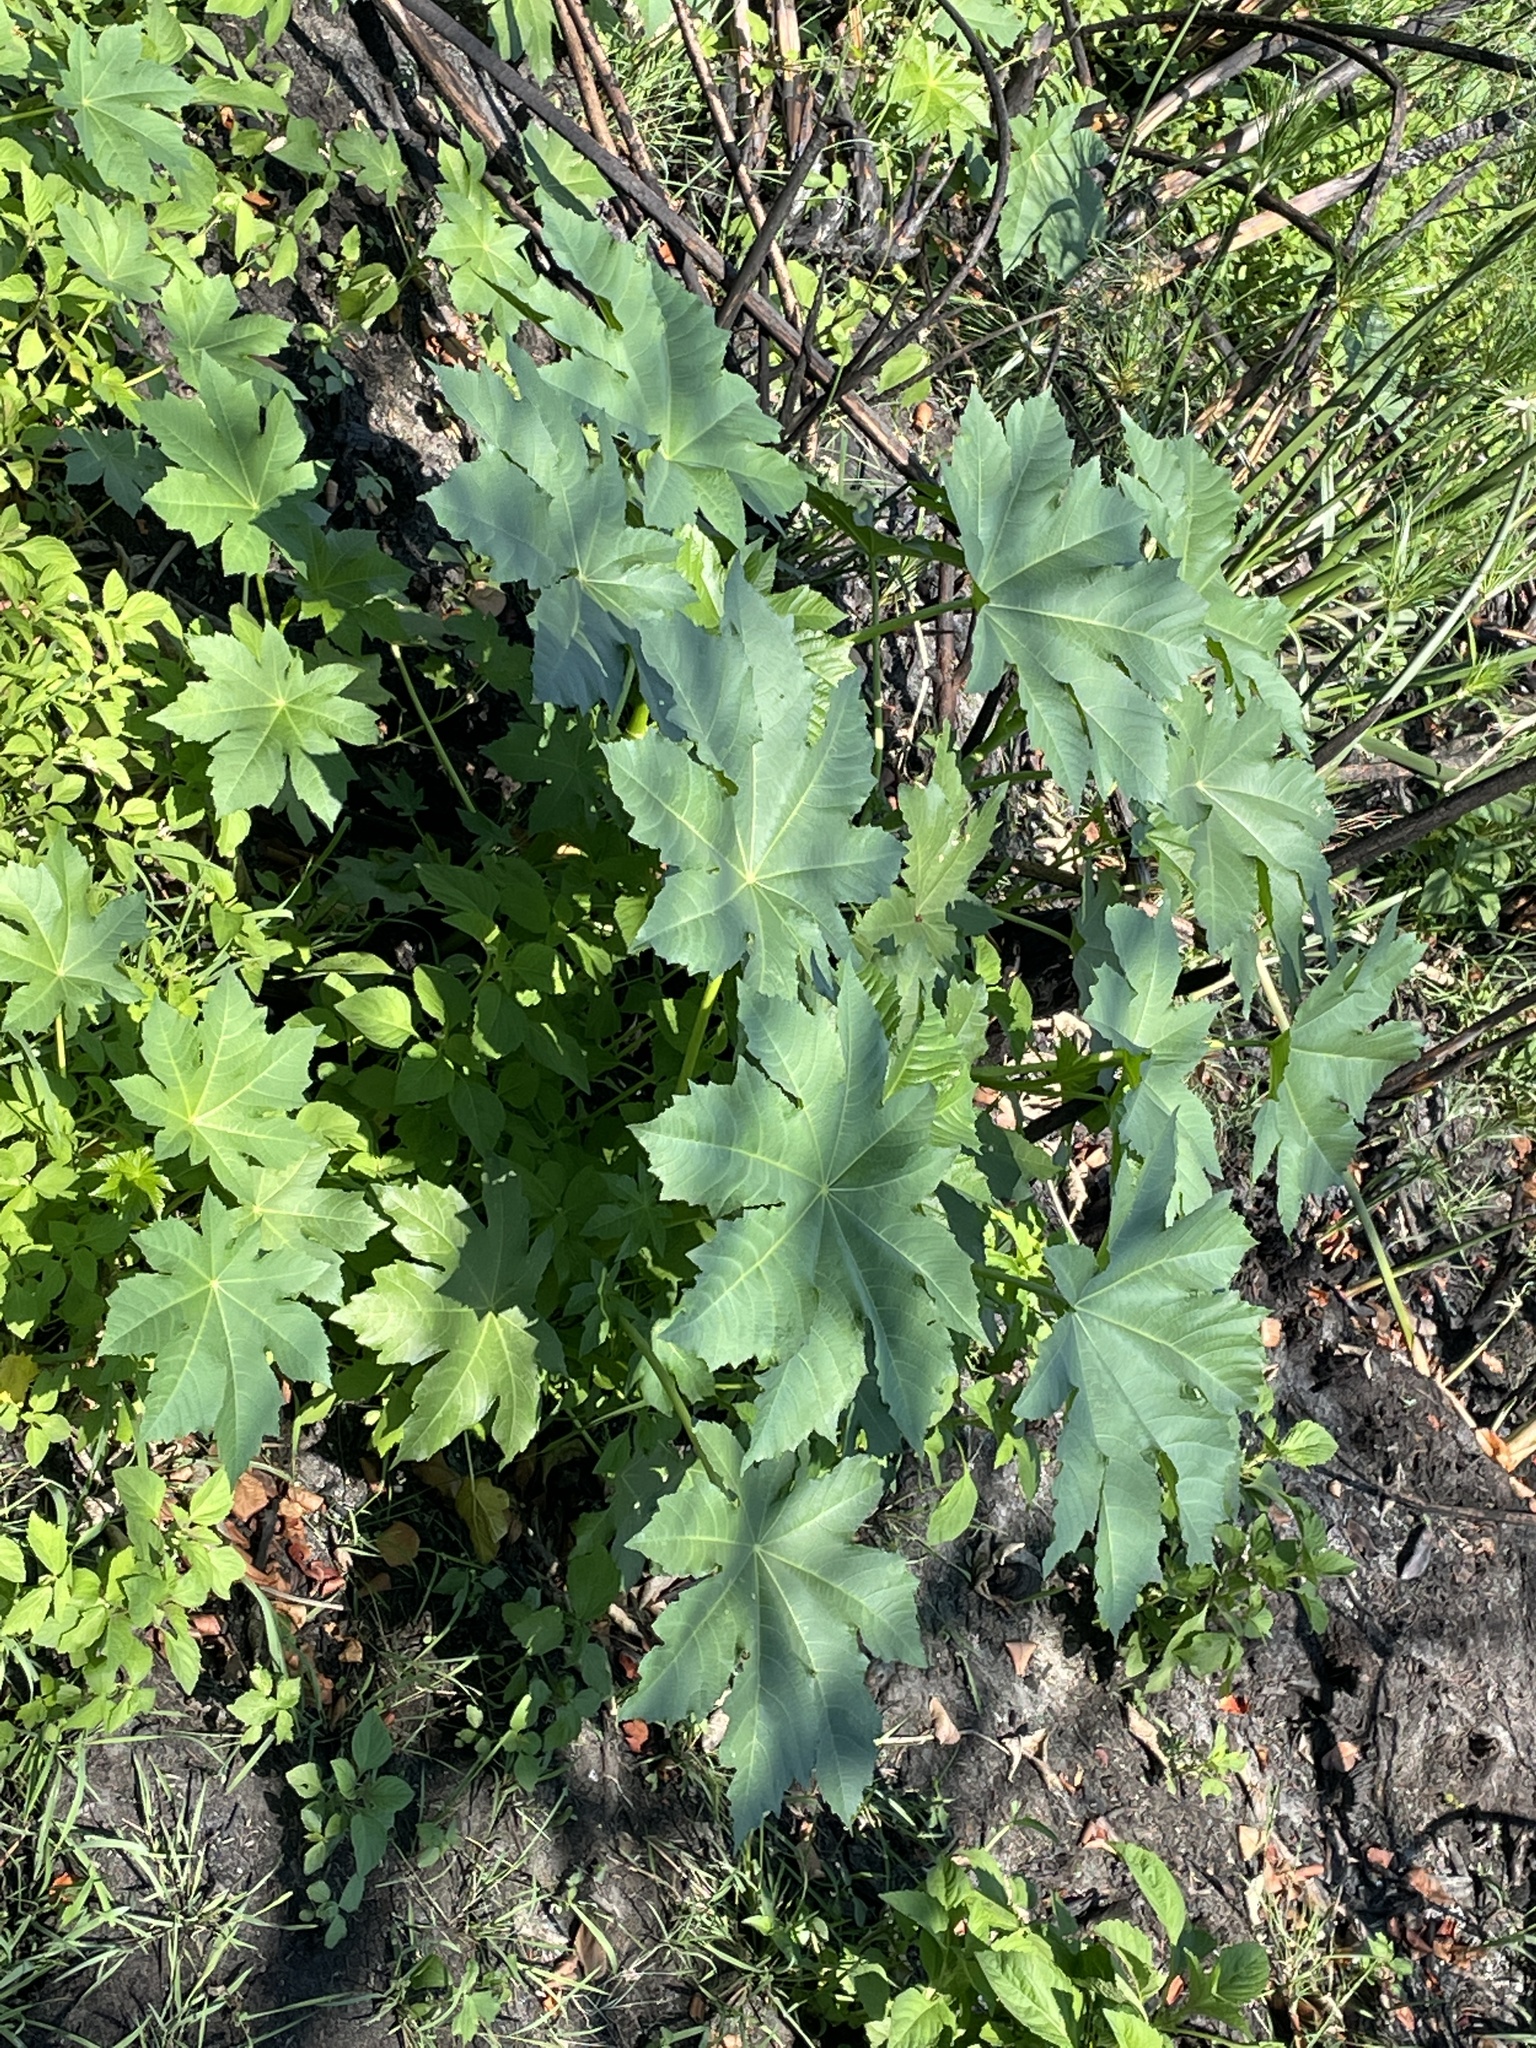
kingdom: Plantae
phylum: Tracheophyta
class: Magnoliopsida
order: Malpighiales
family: Euphorbiaceae
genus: Ricinus
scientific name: Ricinus communis
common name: Castor-oil-plant
